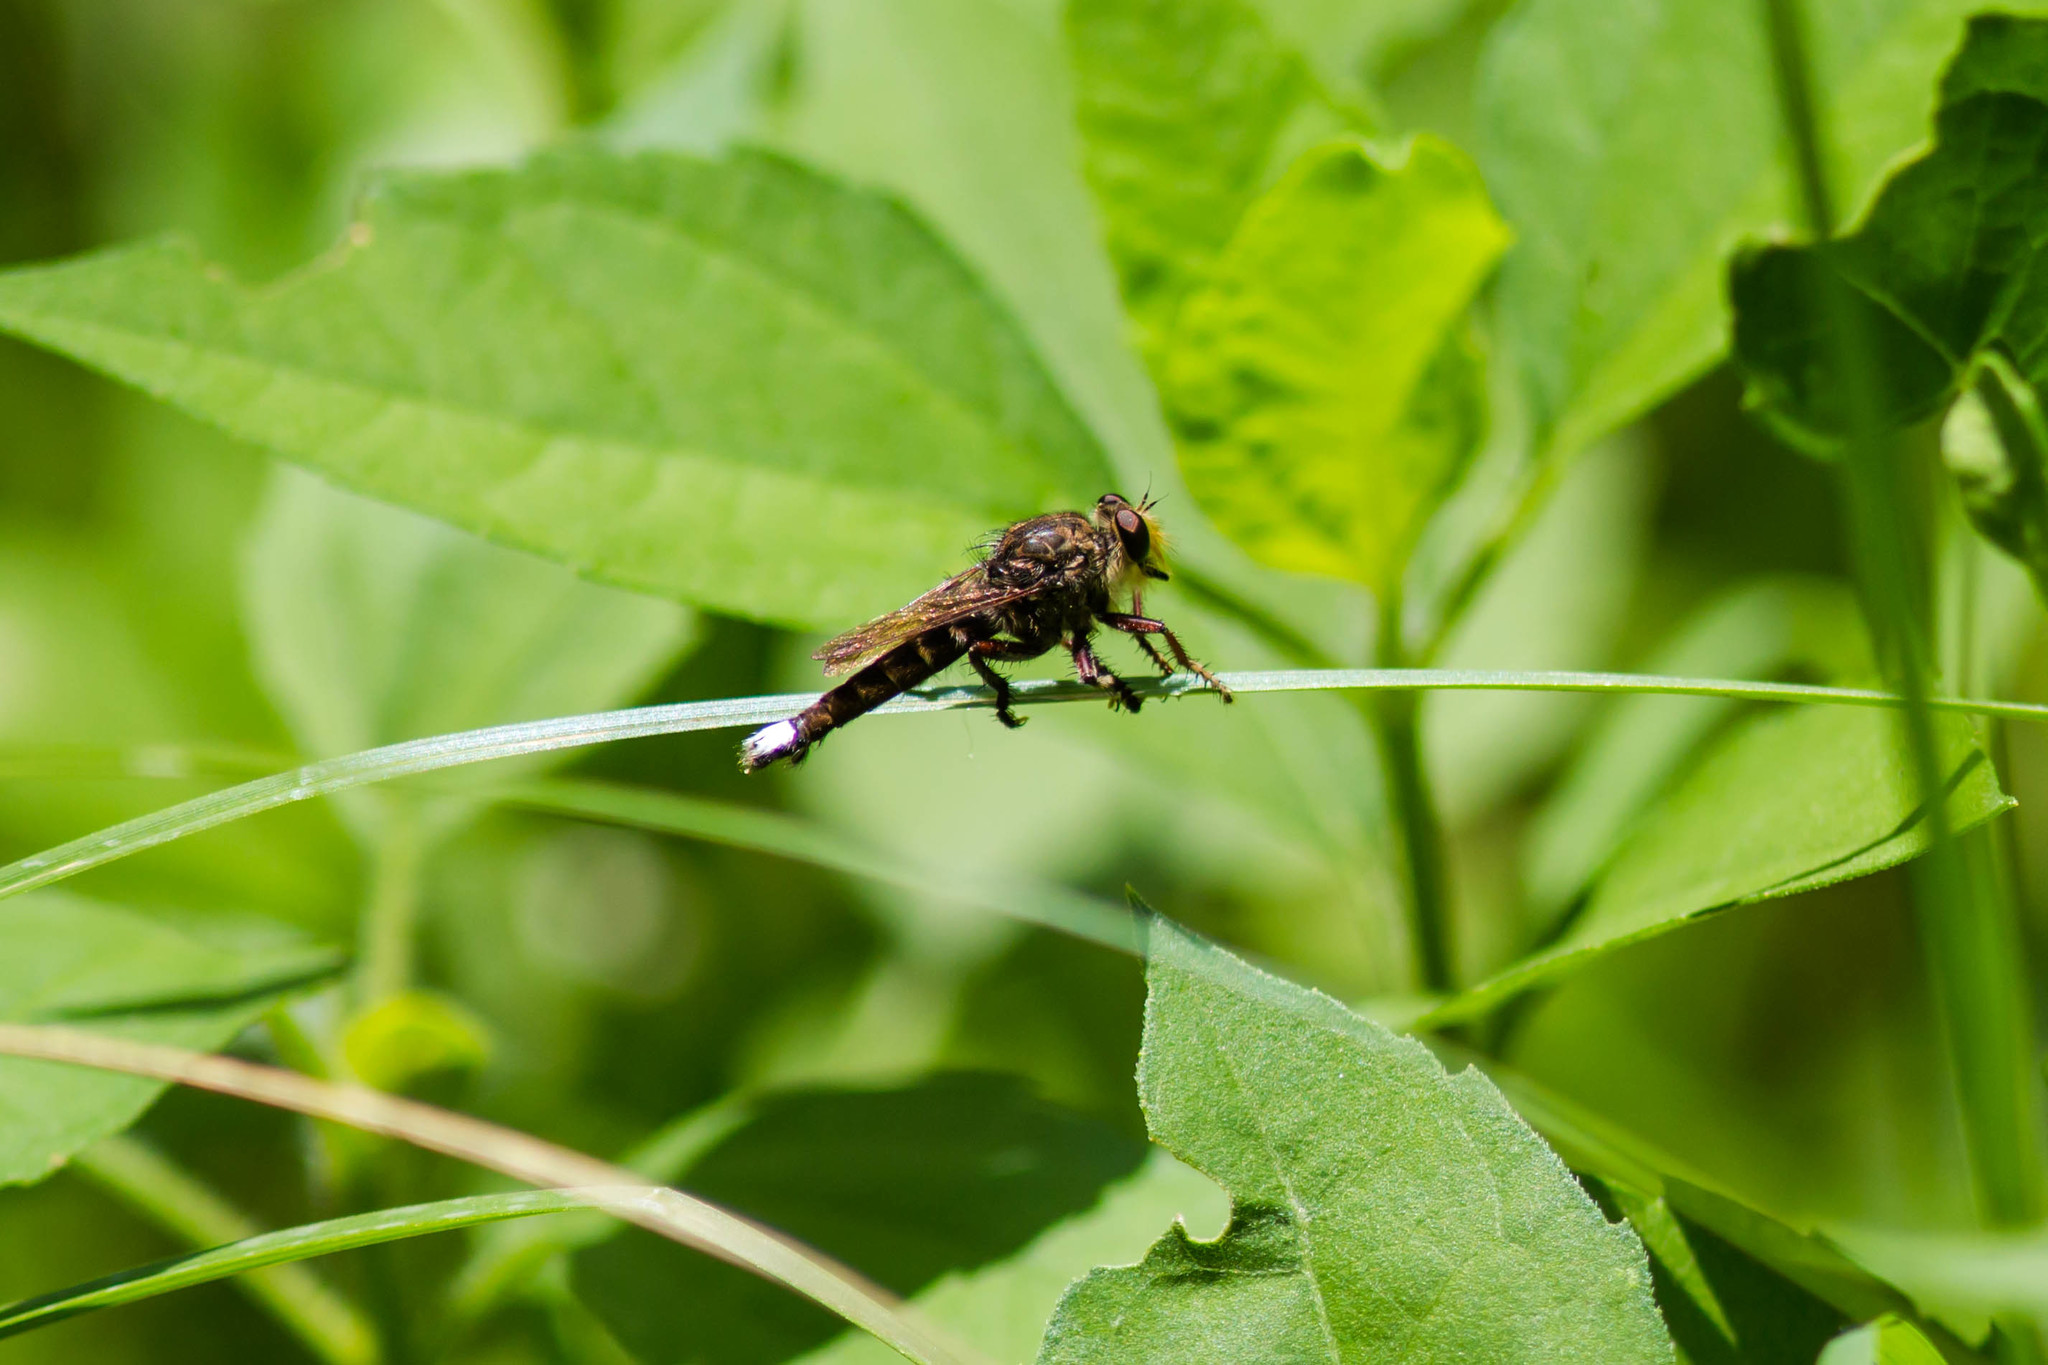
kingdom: Animalia
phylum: Arthropoda
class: Insecta
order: Diptera
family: Asilidae
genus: Promachus
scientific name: Promachus bastardii
